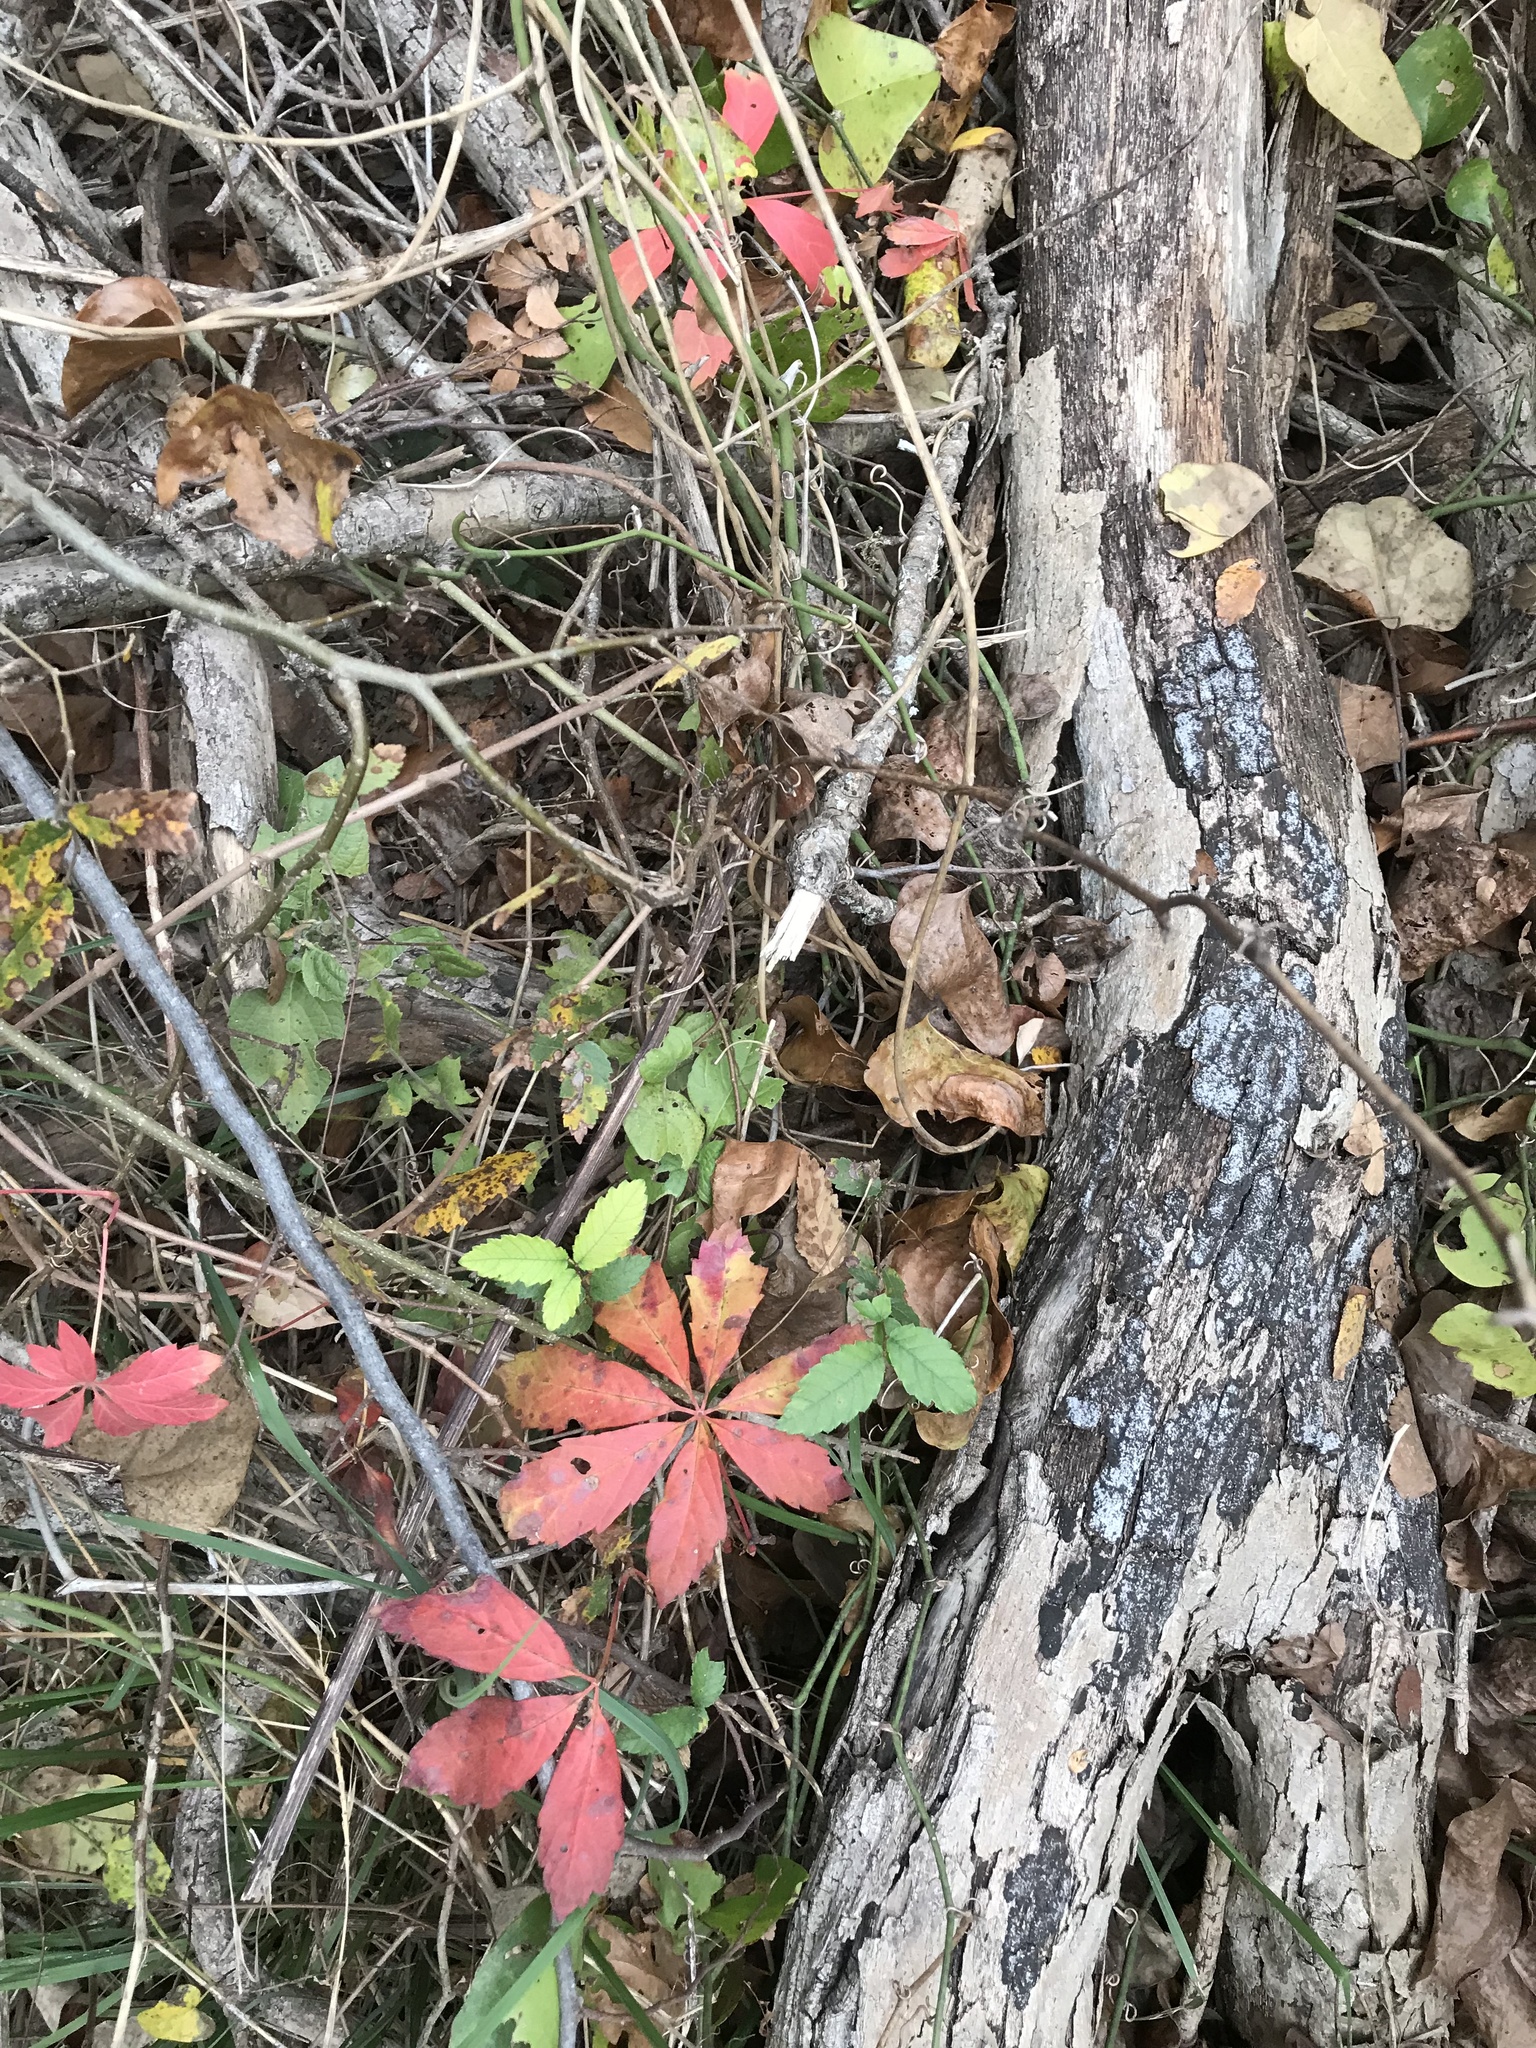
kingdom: Plantae
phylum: Tracheophyta
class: Magnoliopsida
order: Vitales
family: Vitaceae
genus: Parthenocissus
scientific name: Parthenocissus heptaphylla
